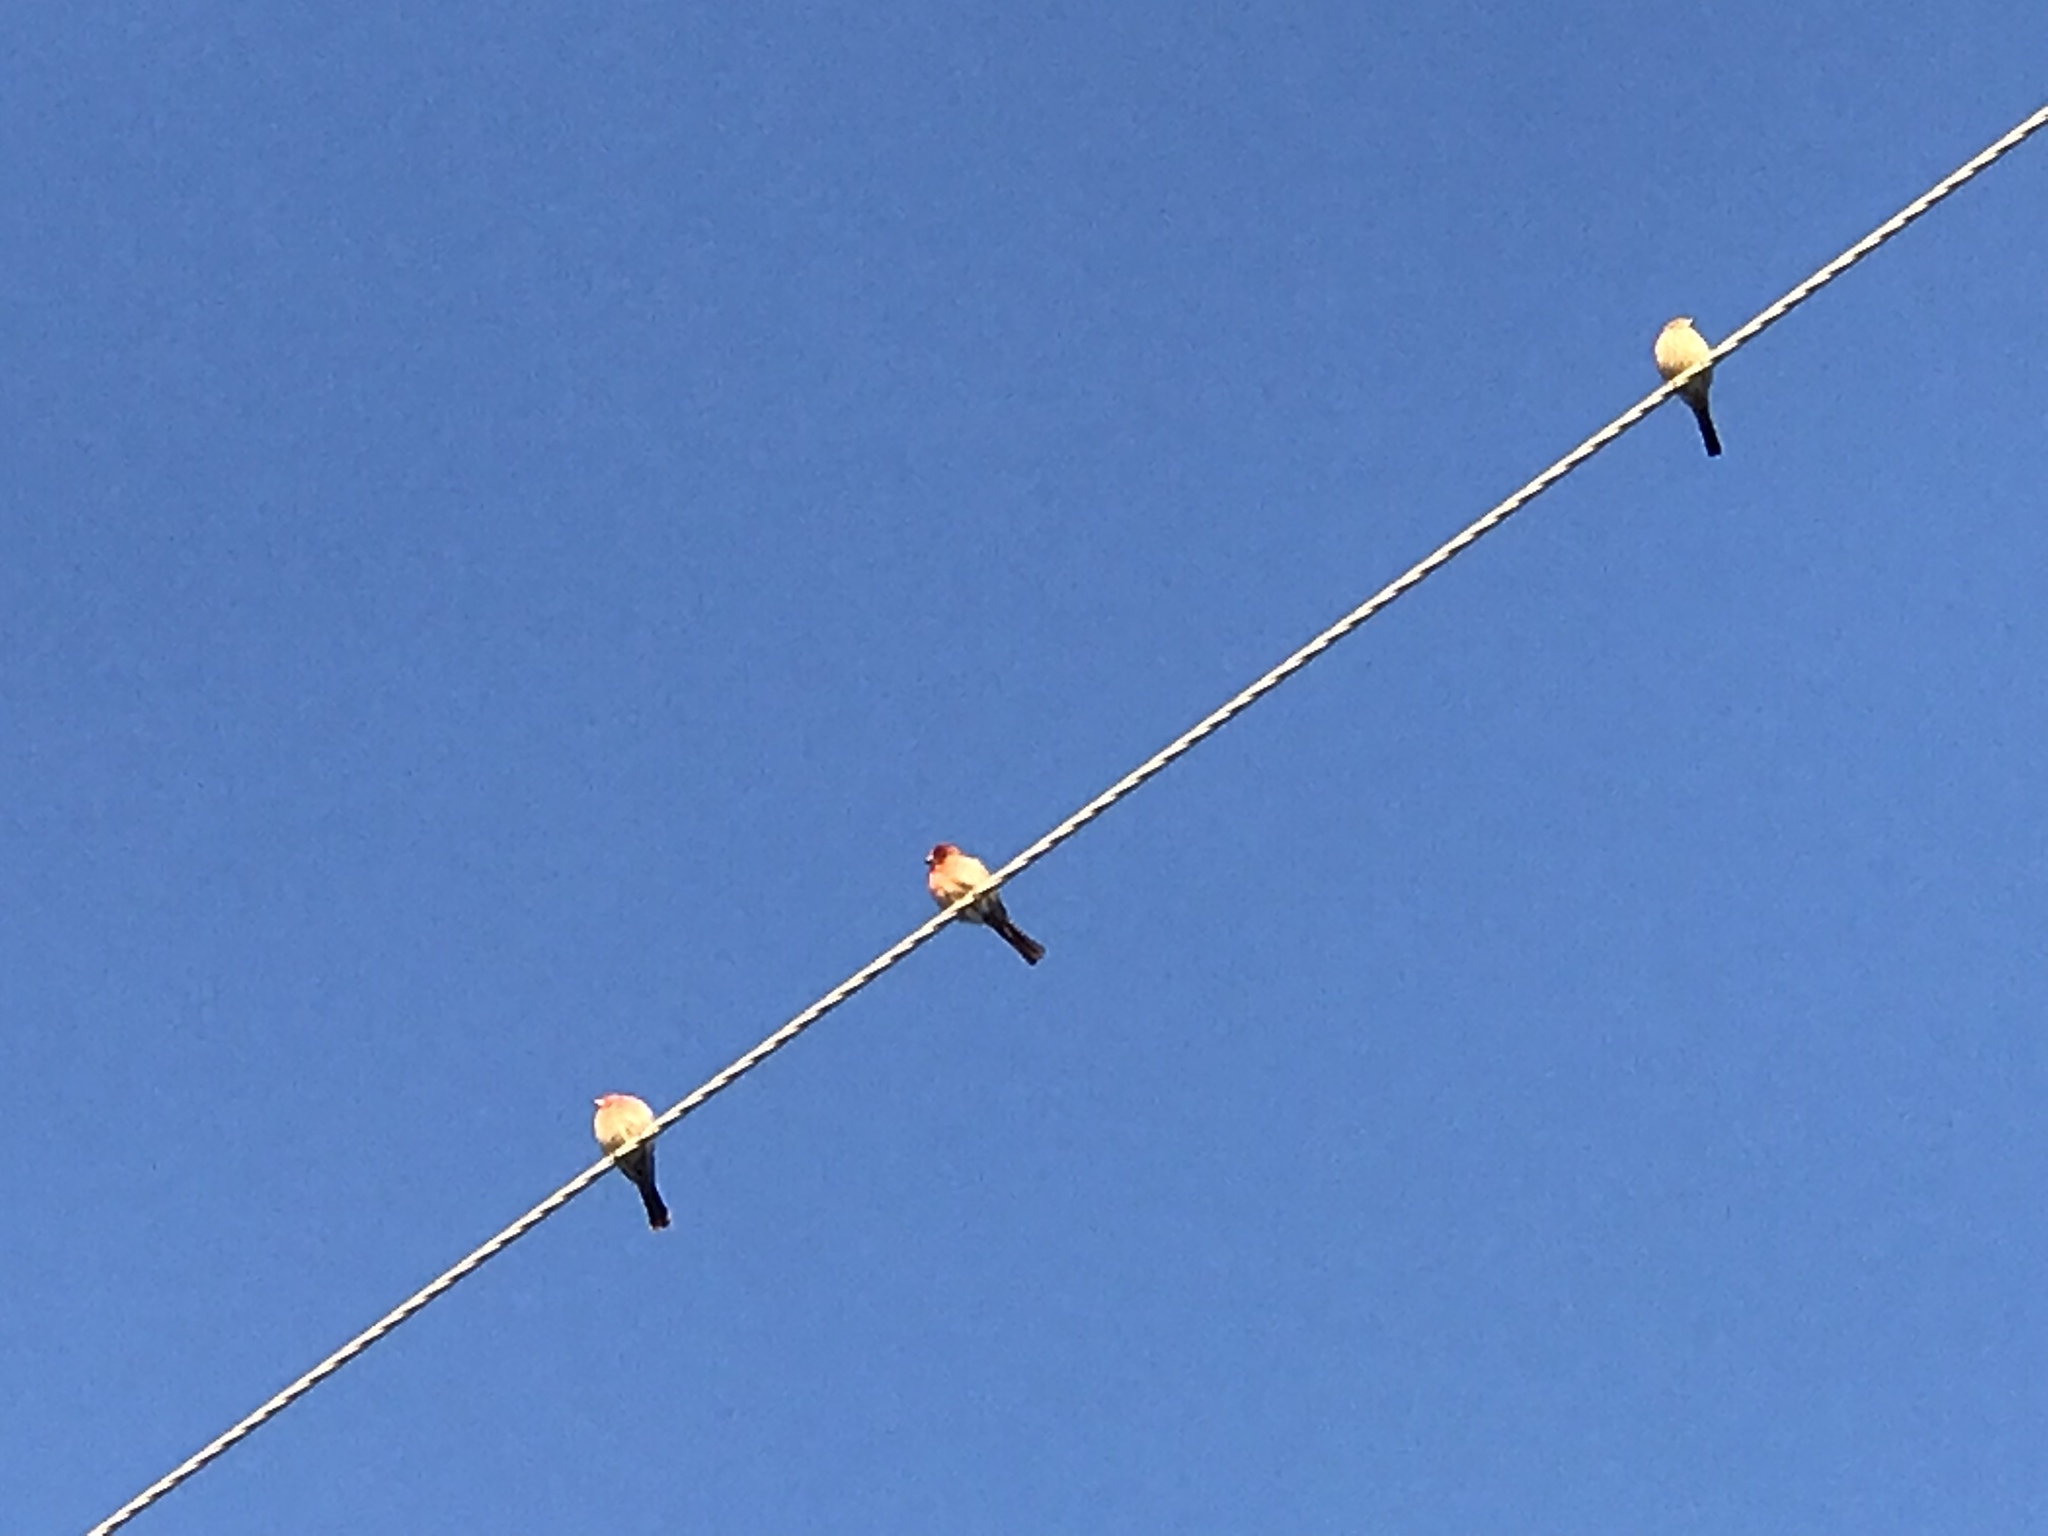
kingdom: Animalia
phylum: Chordata
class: Aves
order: Passeriformes
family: Fringillidae
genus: Haemorhous
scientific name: Haemorhous mexicanus
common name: House finch
